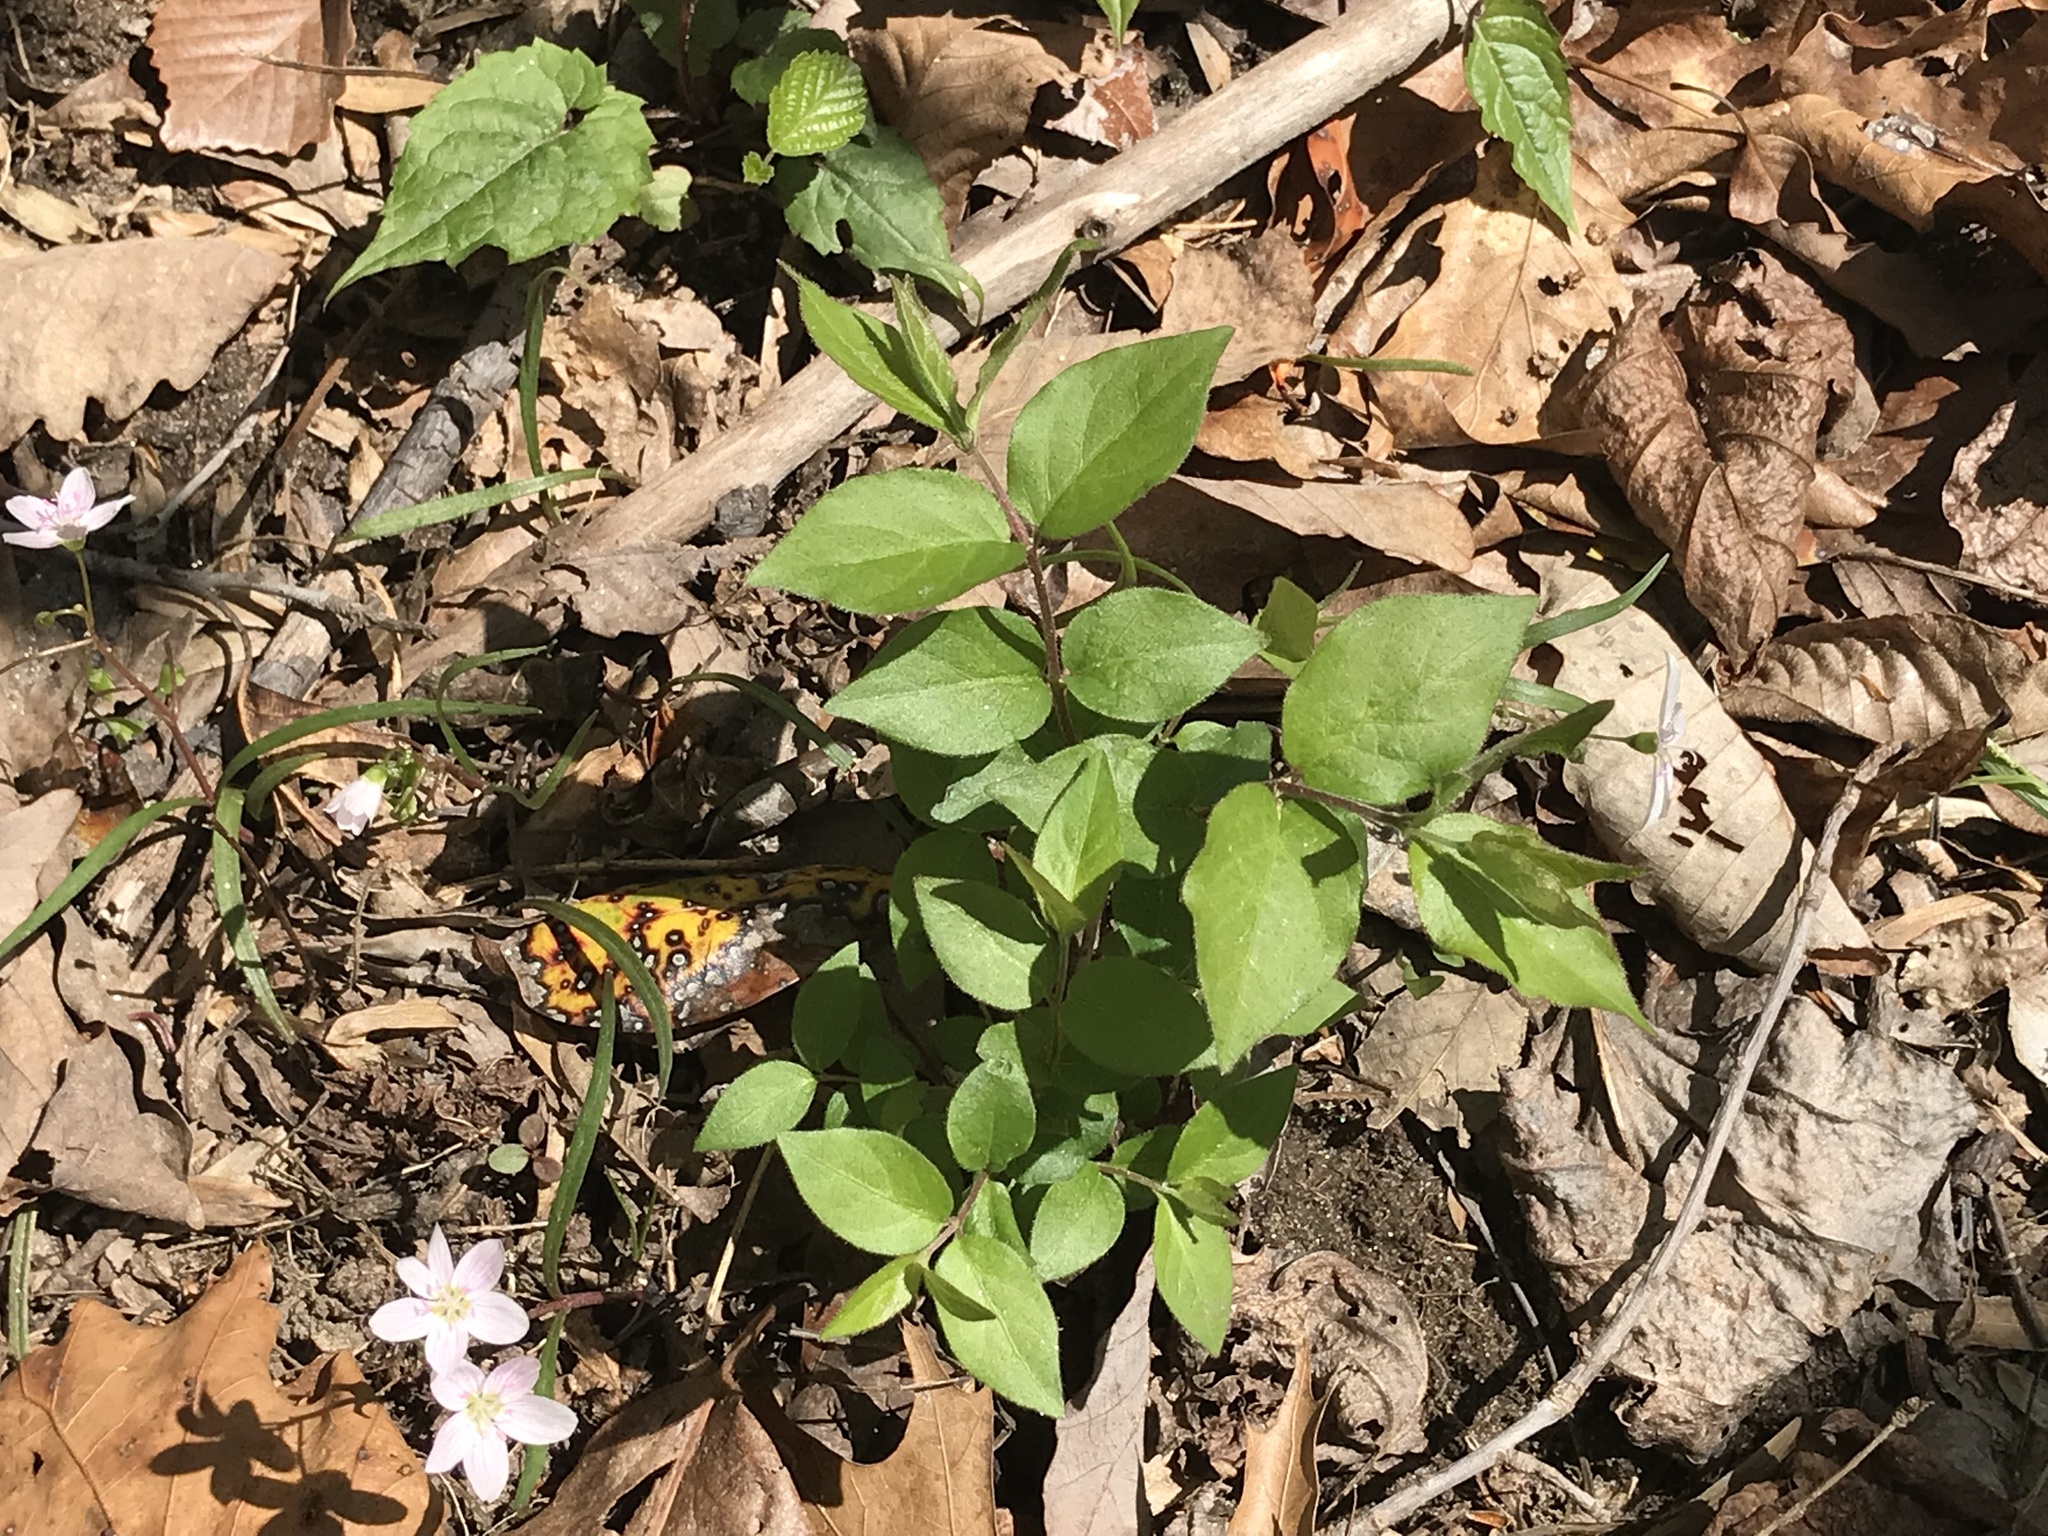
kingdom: Plantae
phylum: Tracheophyta
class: Magnoliopsida
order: Dipsacales
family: Caprifoliaceae
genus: Lonicera
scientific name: Lonicera maackii
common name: Amur honeysuckle
